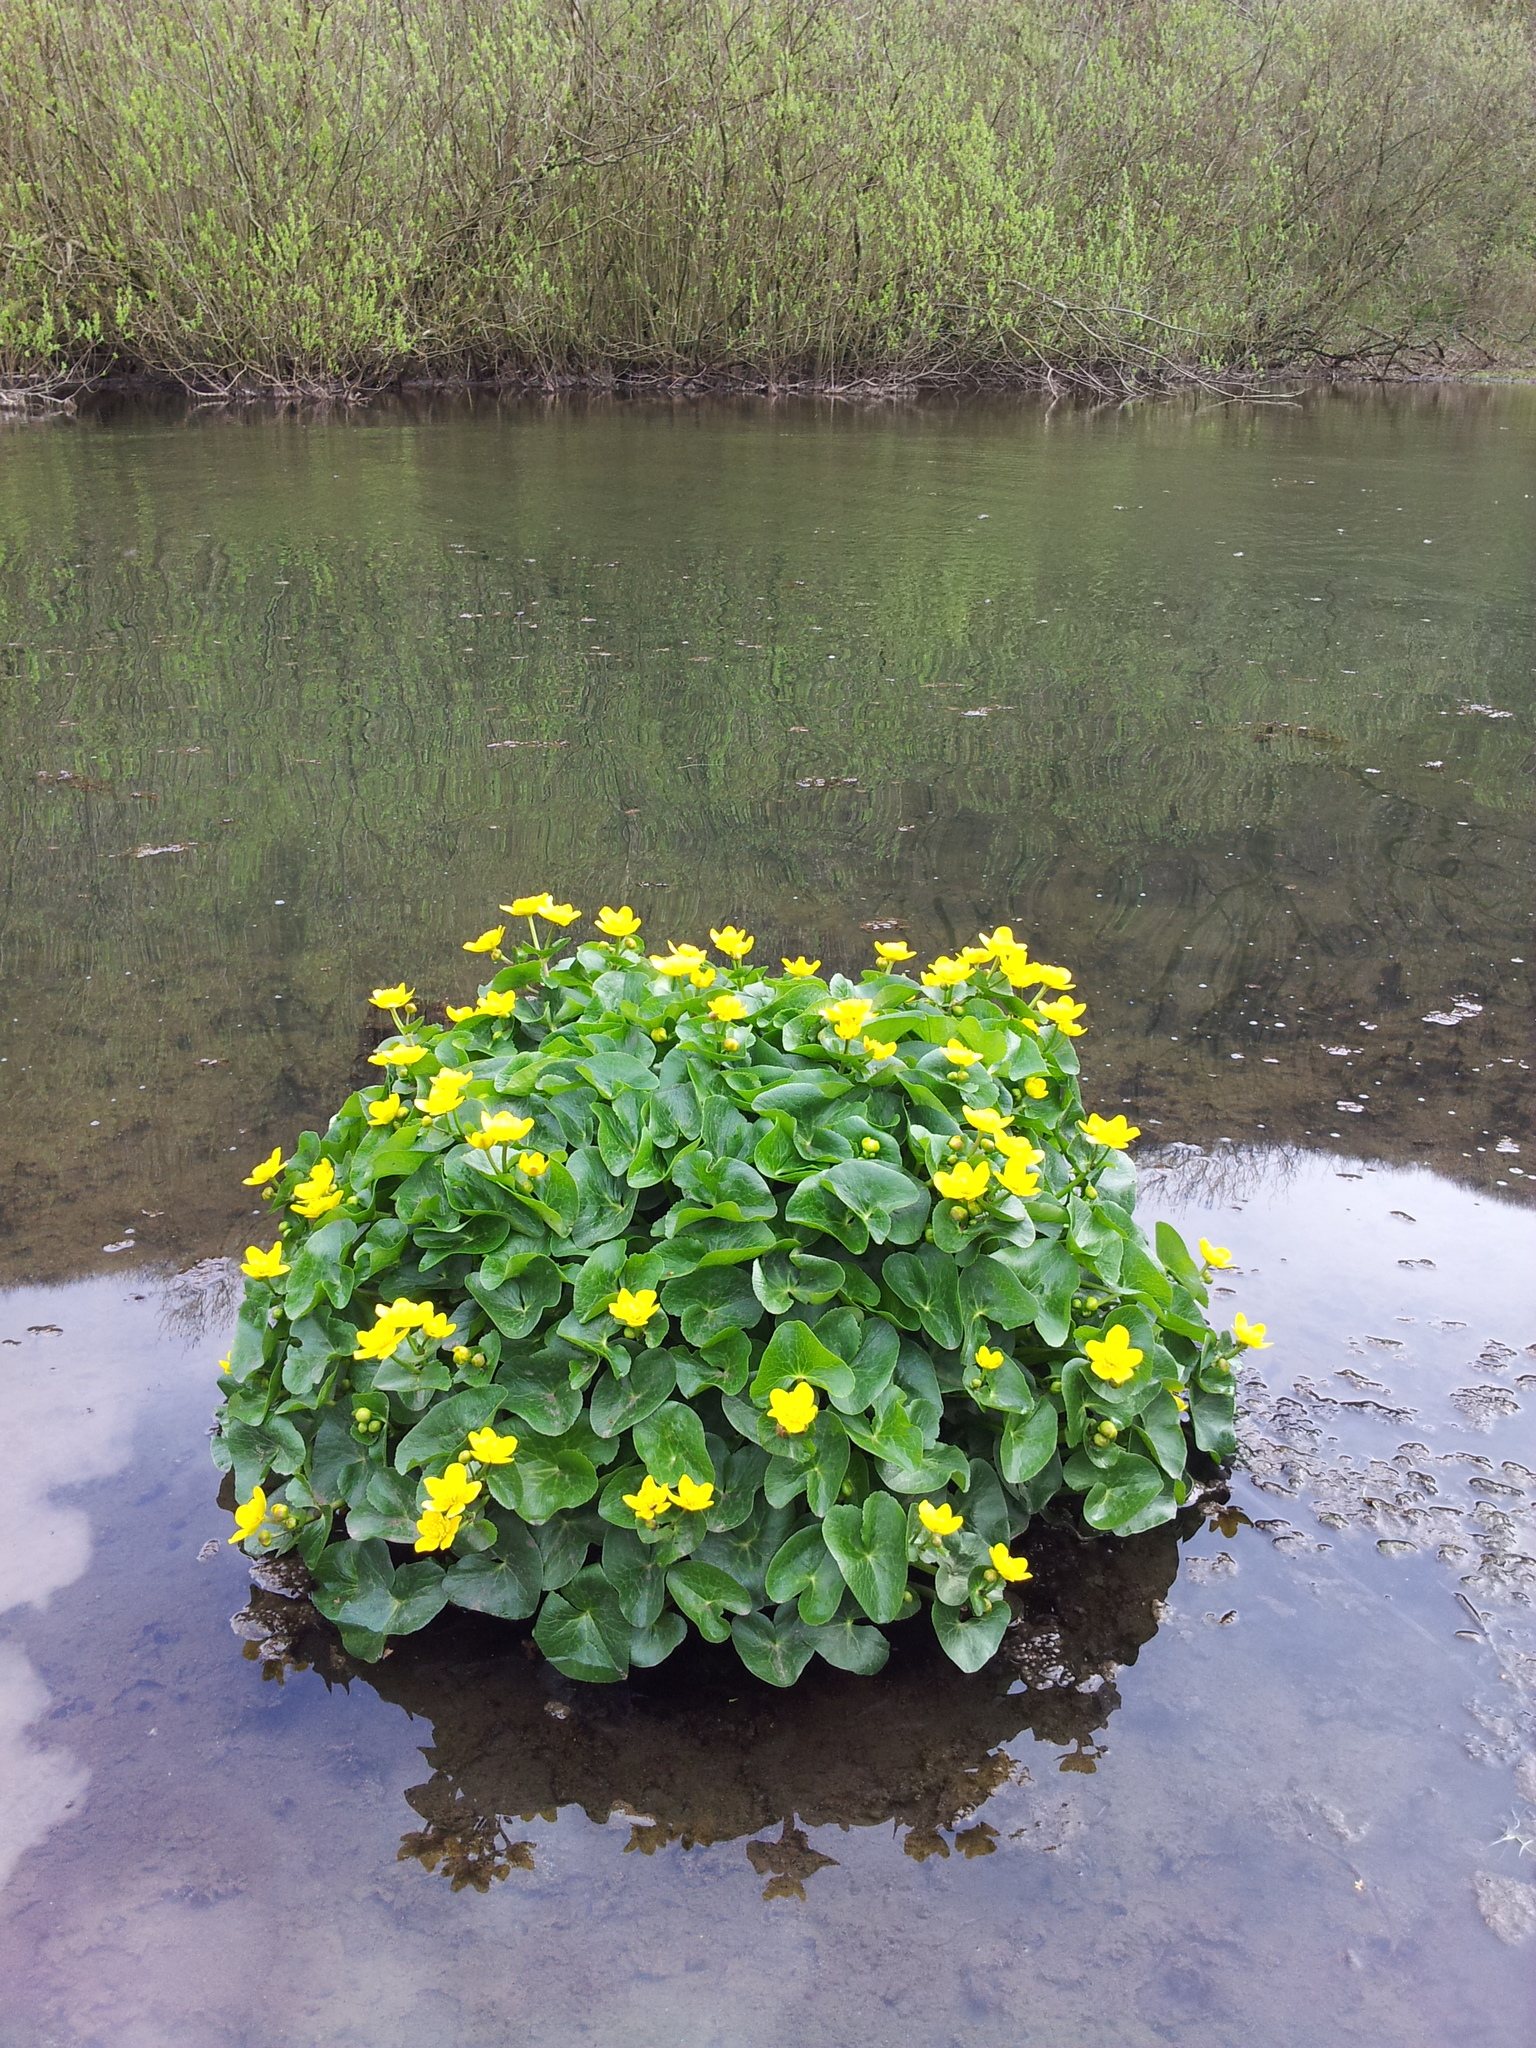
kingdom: Plantae
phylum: Tracheophyta
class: Magnoliopsida
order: Ranunculales
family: Ranunculaceae
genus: Caltha
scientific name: Caltha palustris
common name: Marsh marigold
